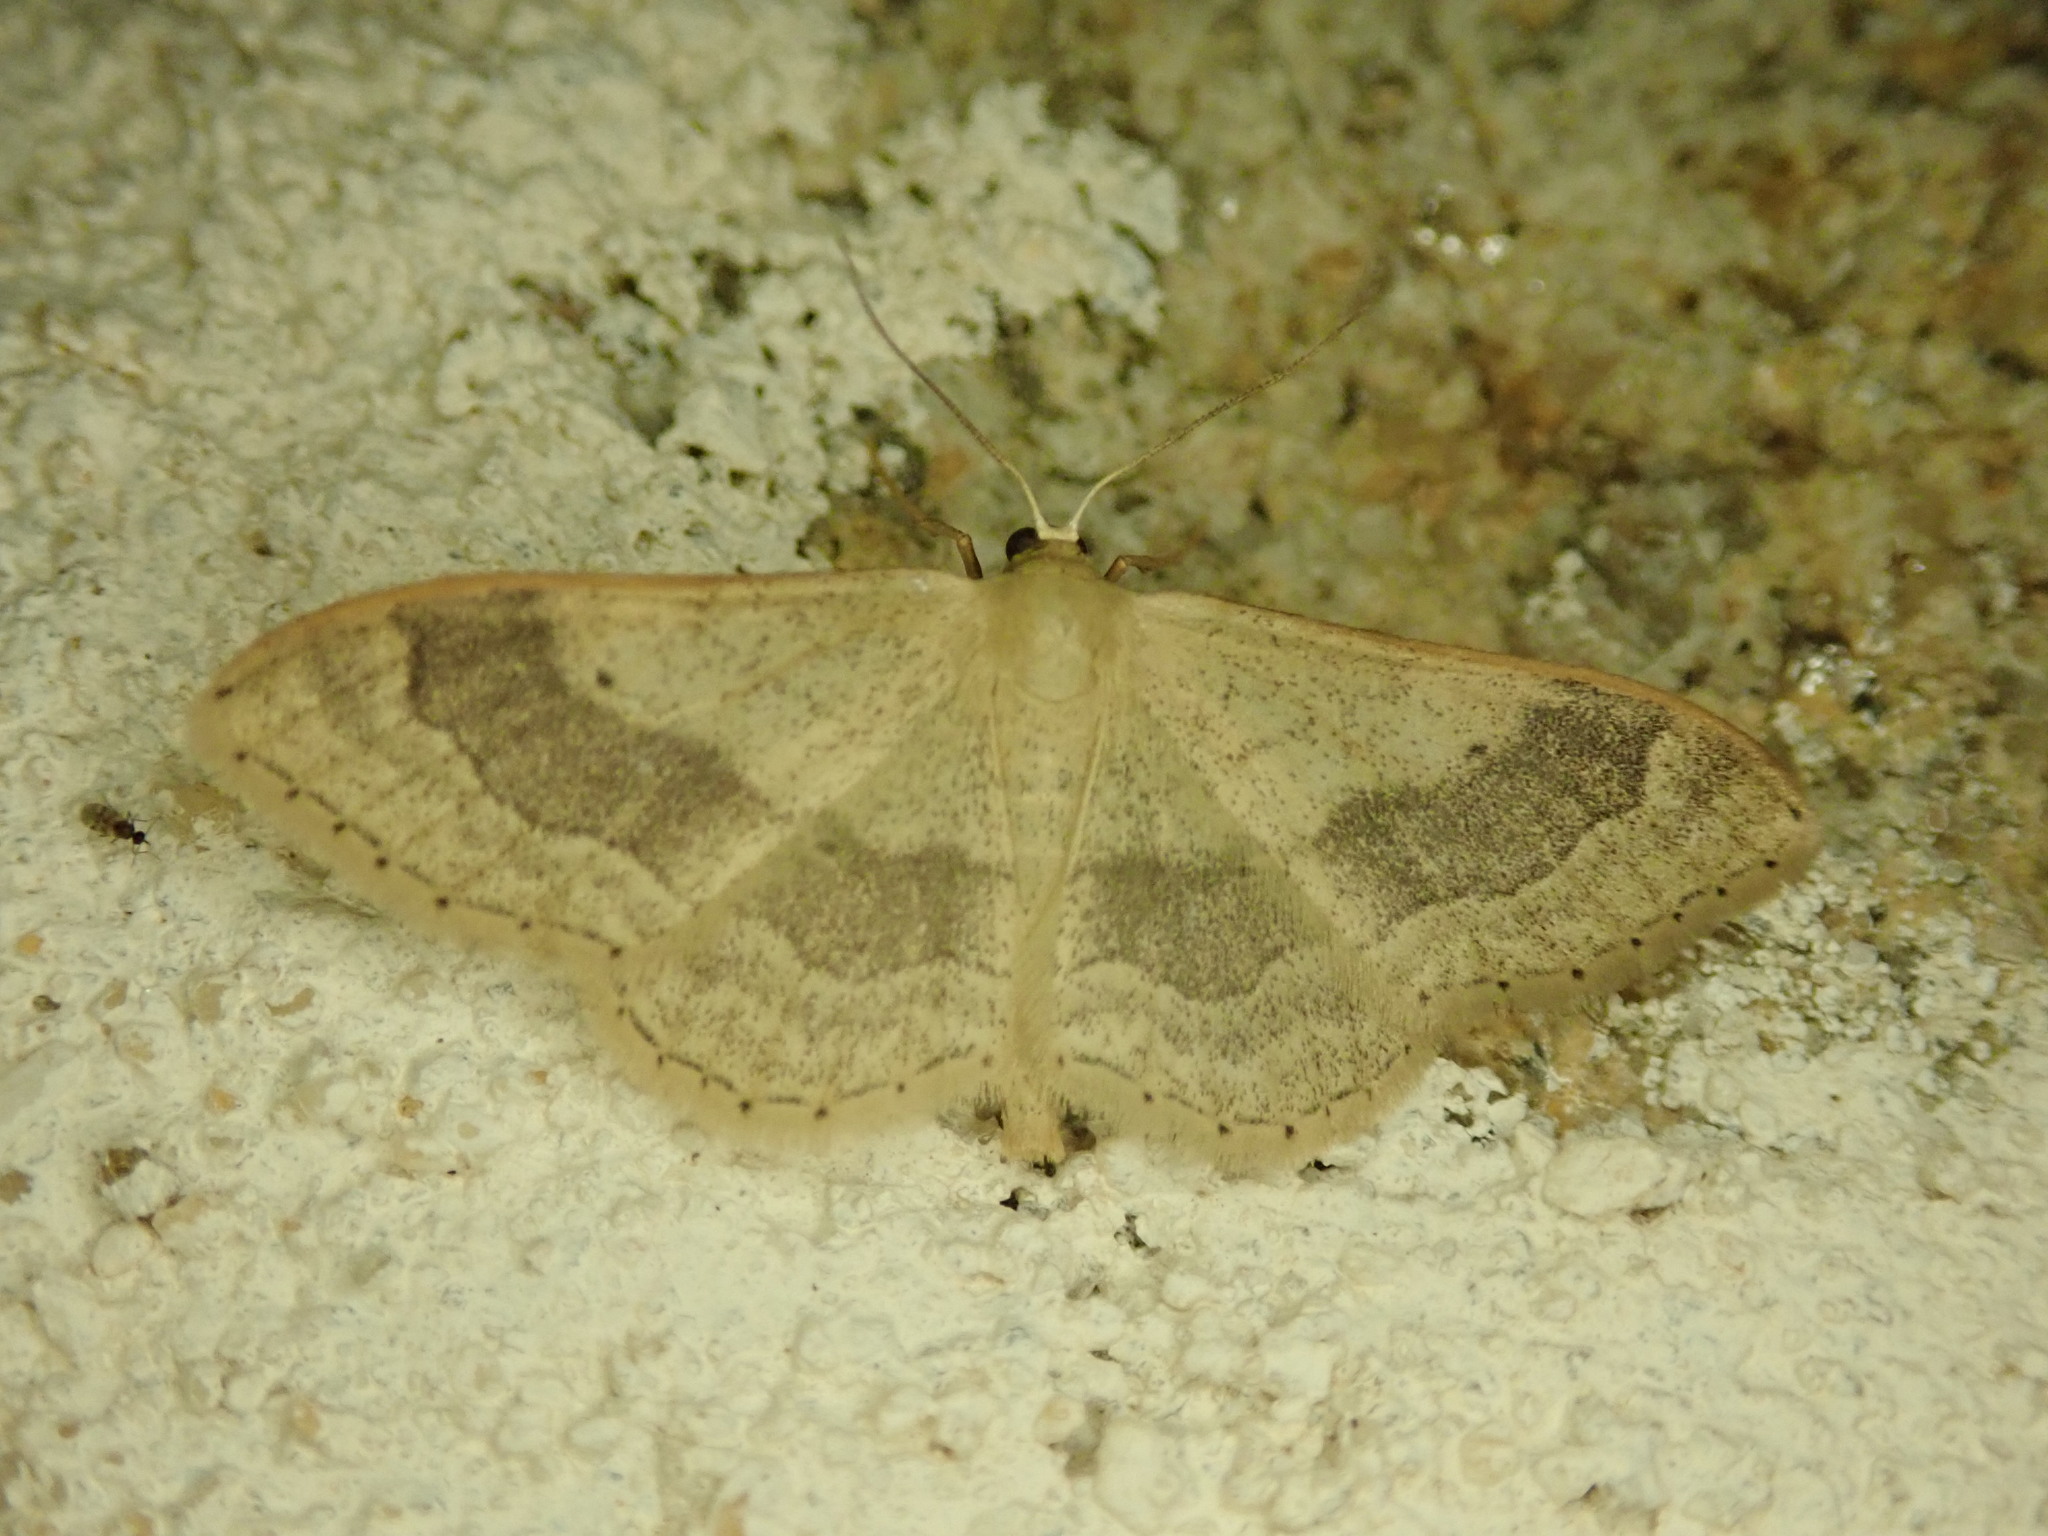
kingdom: Animalia
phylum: Arthropoda
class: Insecta
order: Lepidoptera
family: Geometridae
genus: Idaea
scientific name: Idaea aversata
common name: Riband wave
